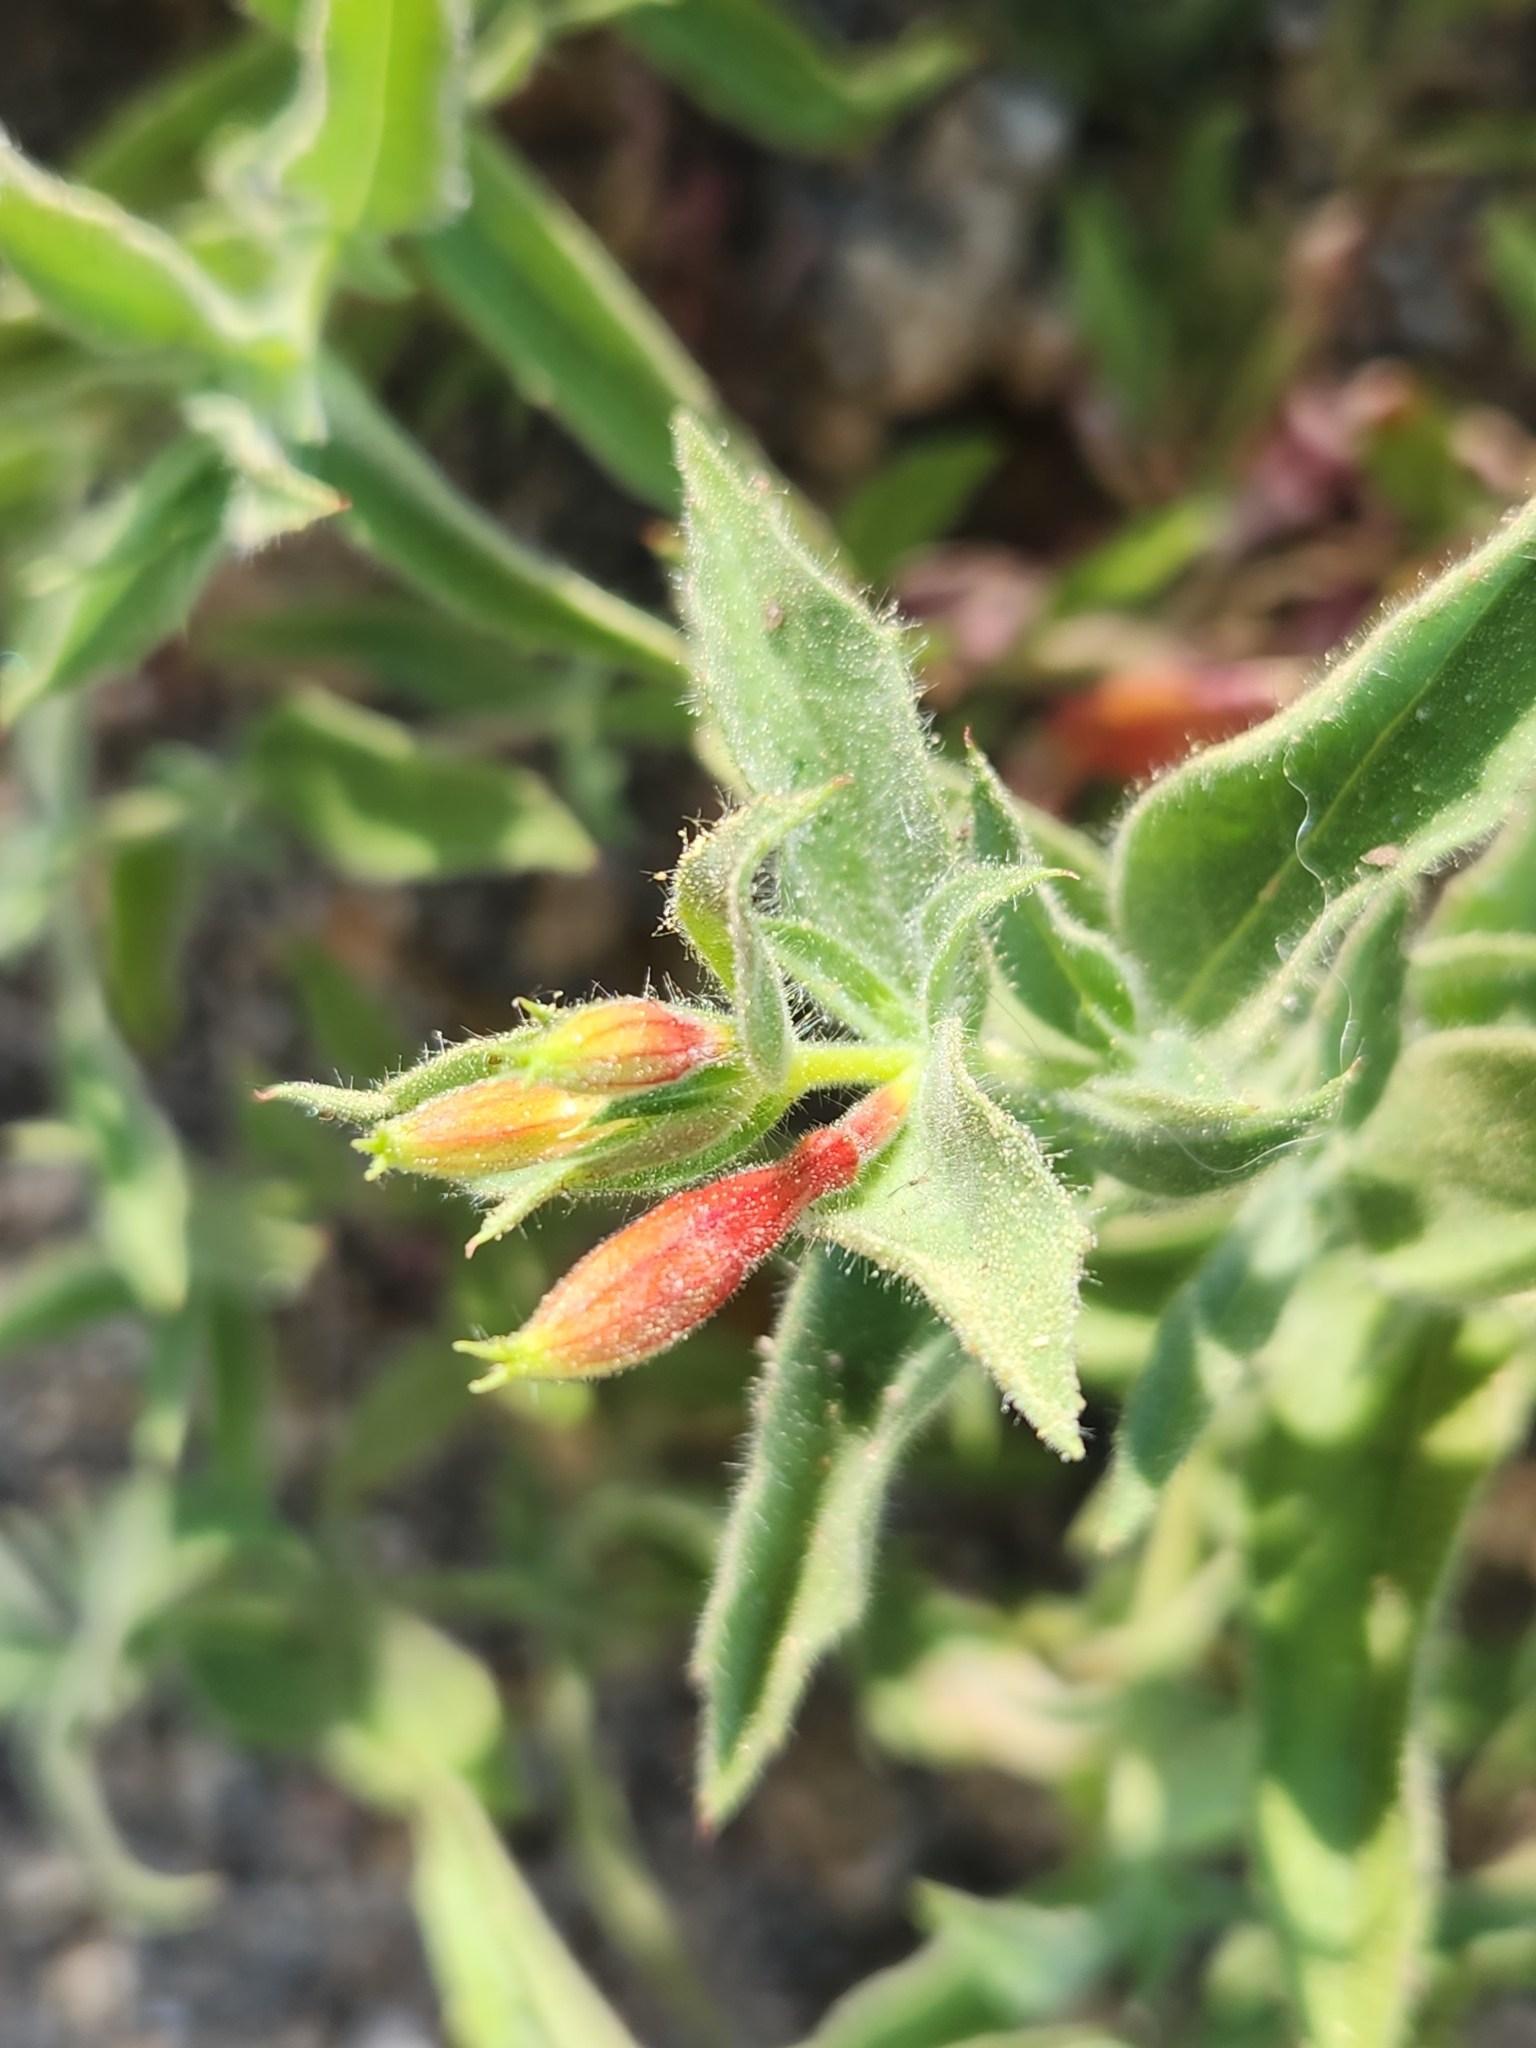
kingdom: Plantae
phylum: Tracheophyta
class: Magnoliopsida
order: Myrtales
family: Onagraceae
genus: Epilobium
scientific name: Epilobium canum
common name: California-fuchsia
